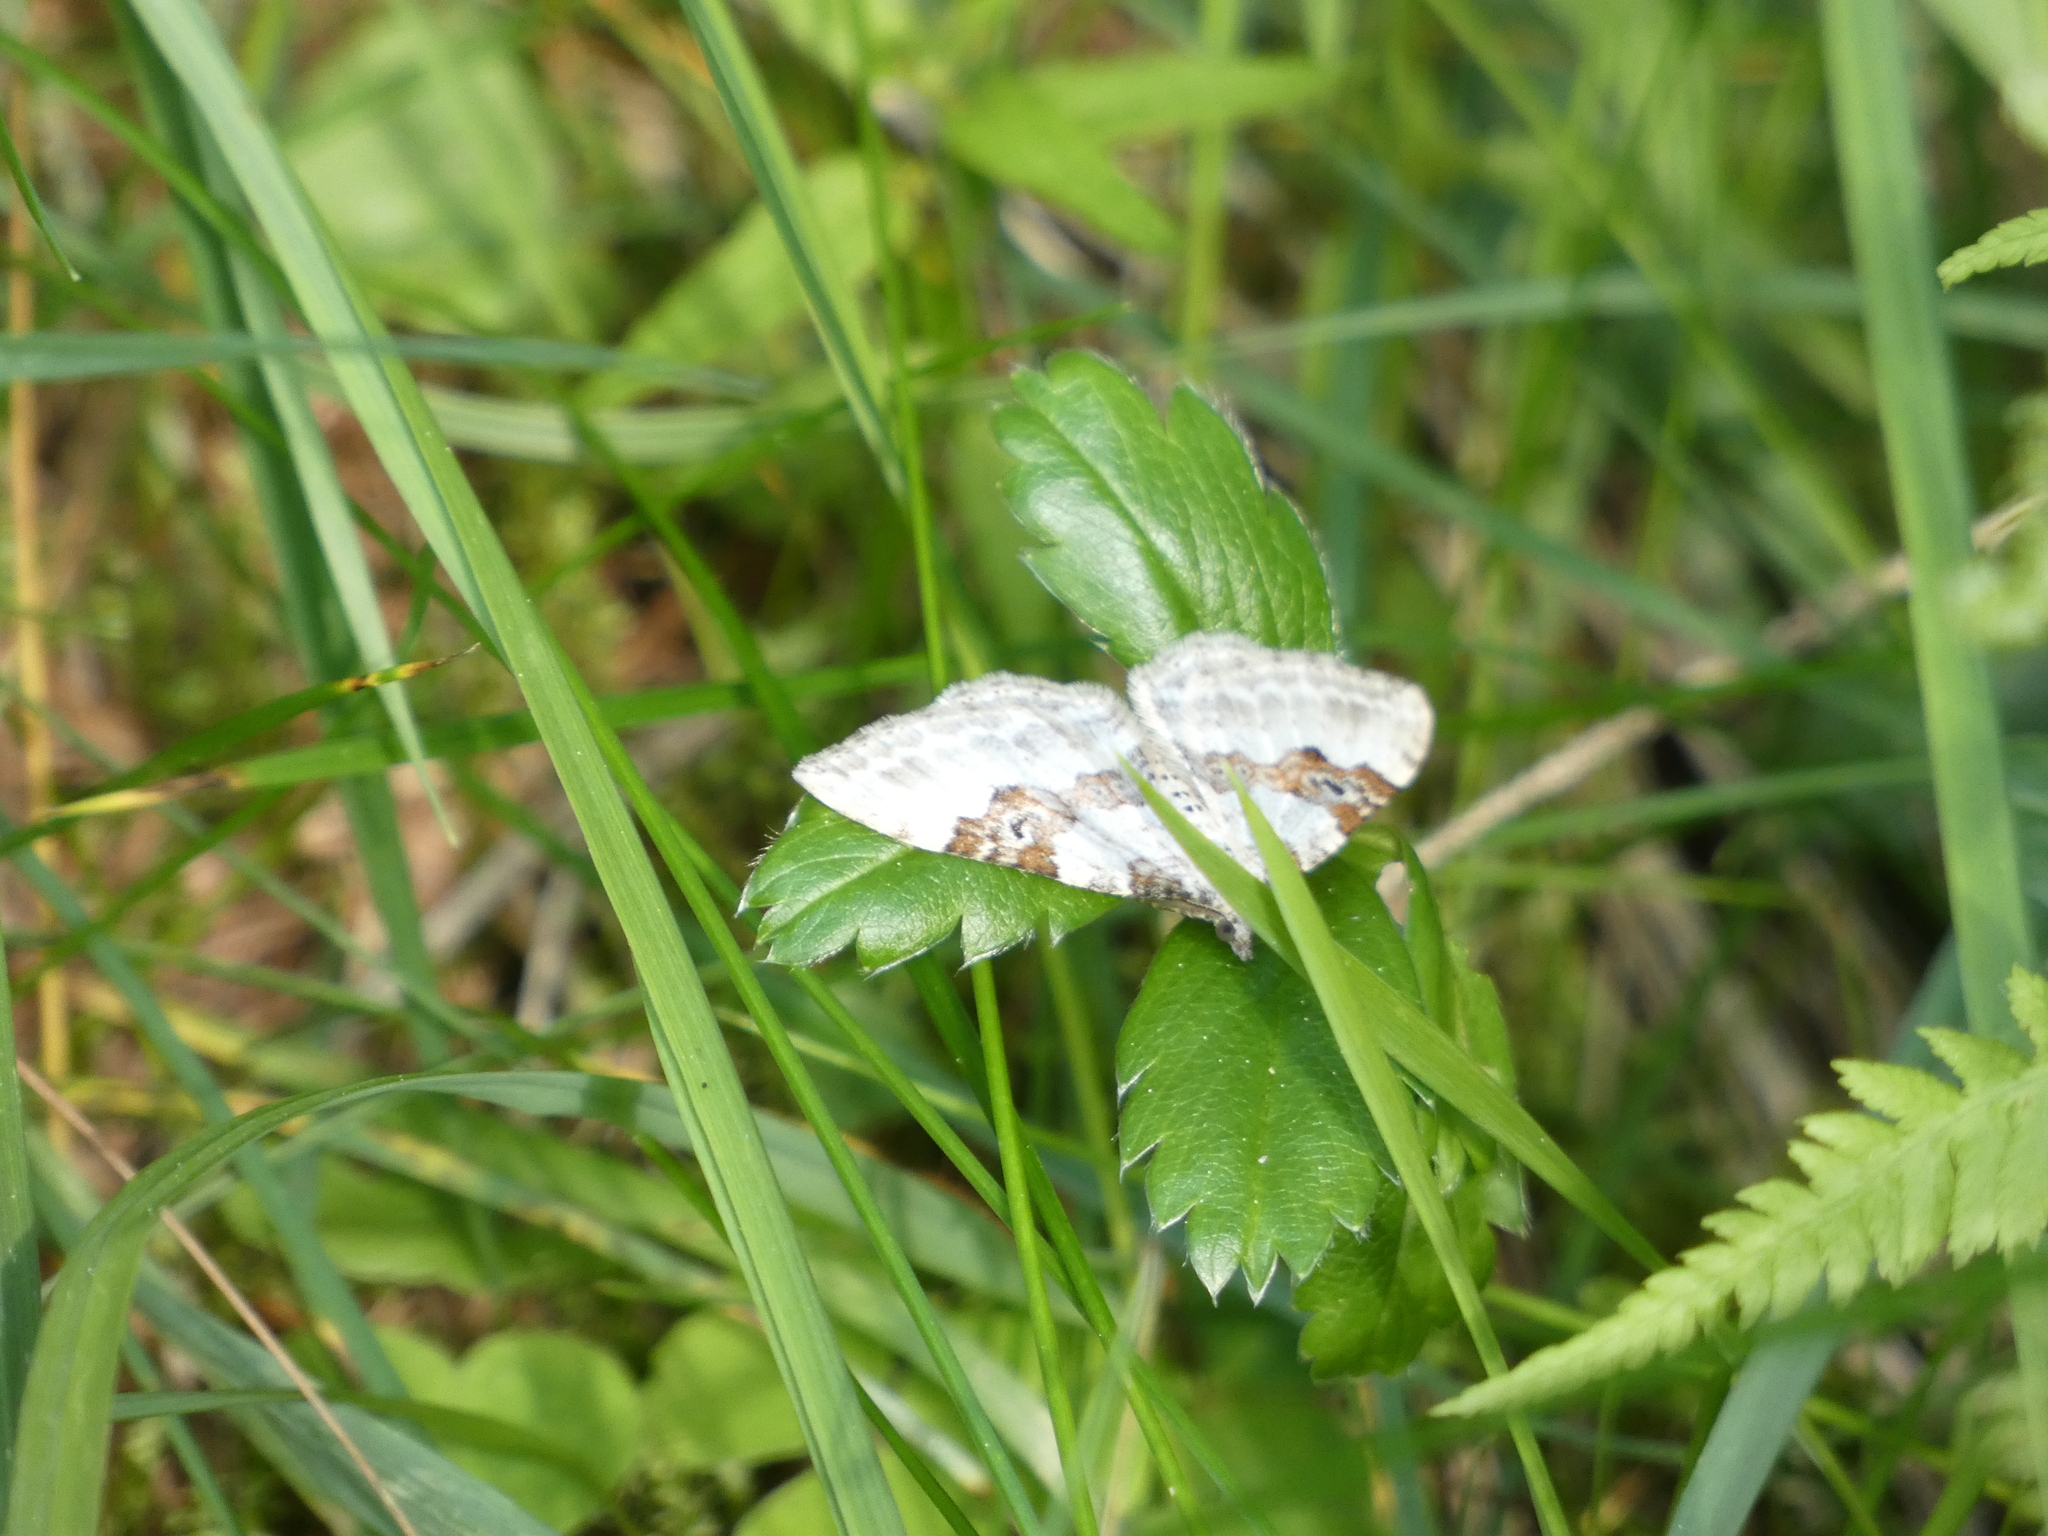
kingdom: Animalia
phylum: Arthropoda
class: Insecta
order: Lepidoptera
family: Geometridae
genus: Xanthorhoe
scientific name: Xanthorhoe montanata
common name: Silver-ground carpet
